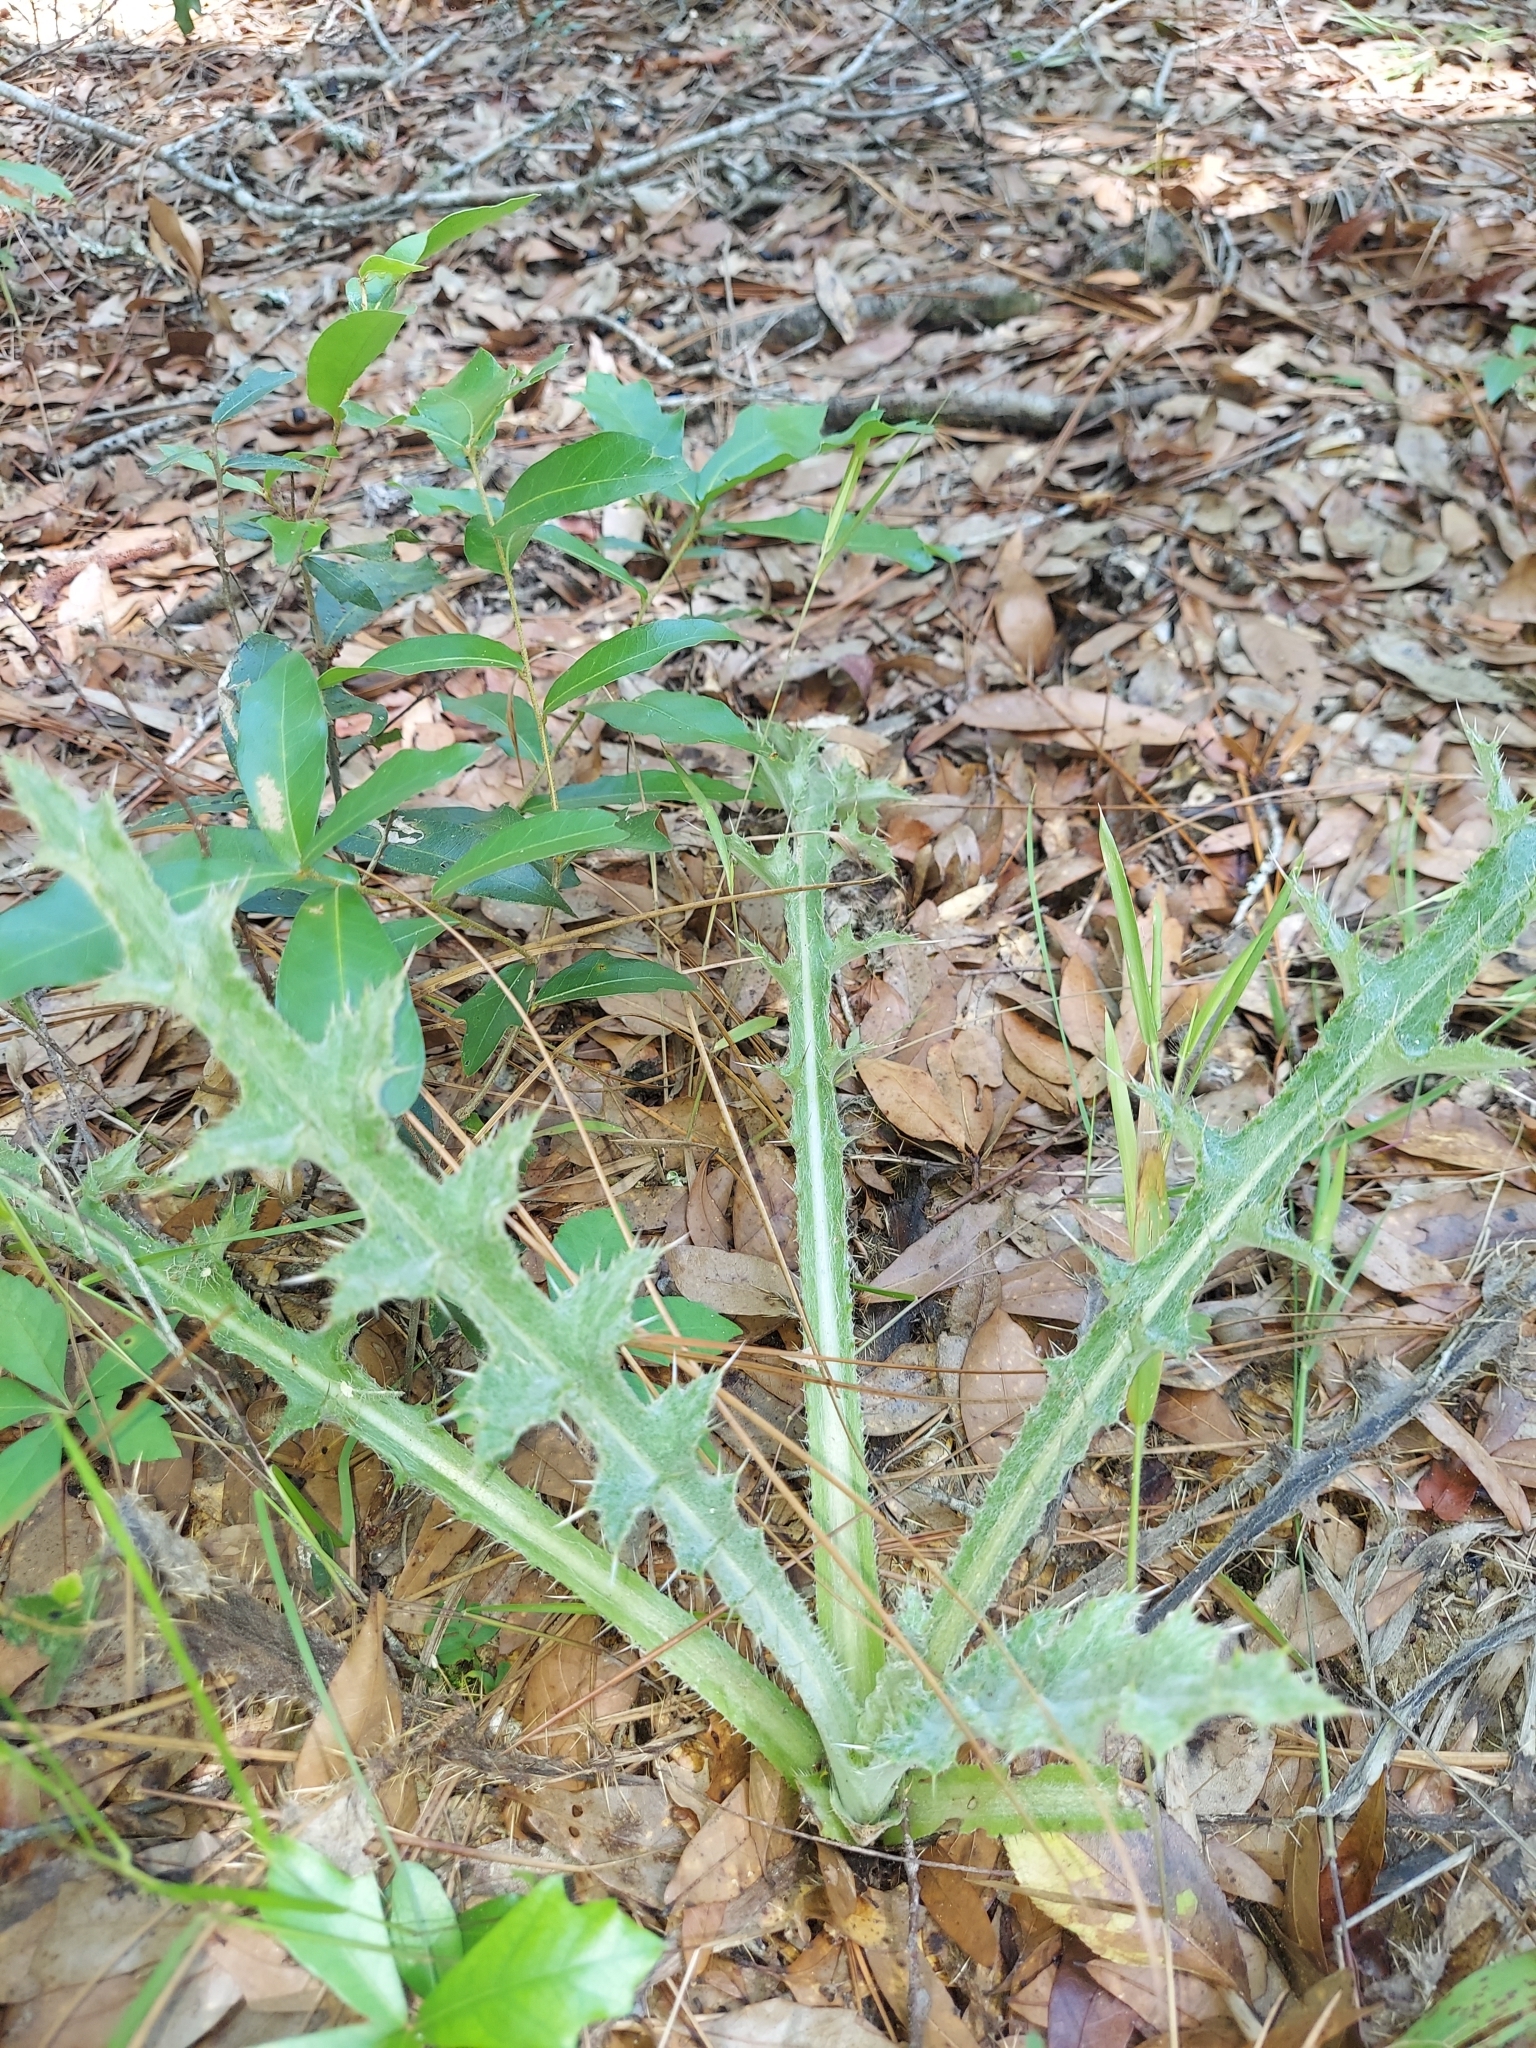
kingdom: Plantae
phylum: Tracheophyta
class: Magnoliopsida
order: Asterales
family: Asteraceae
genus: Cirsium
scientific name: Cirsium horridulum
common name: Bristly thistle
